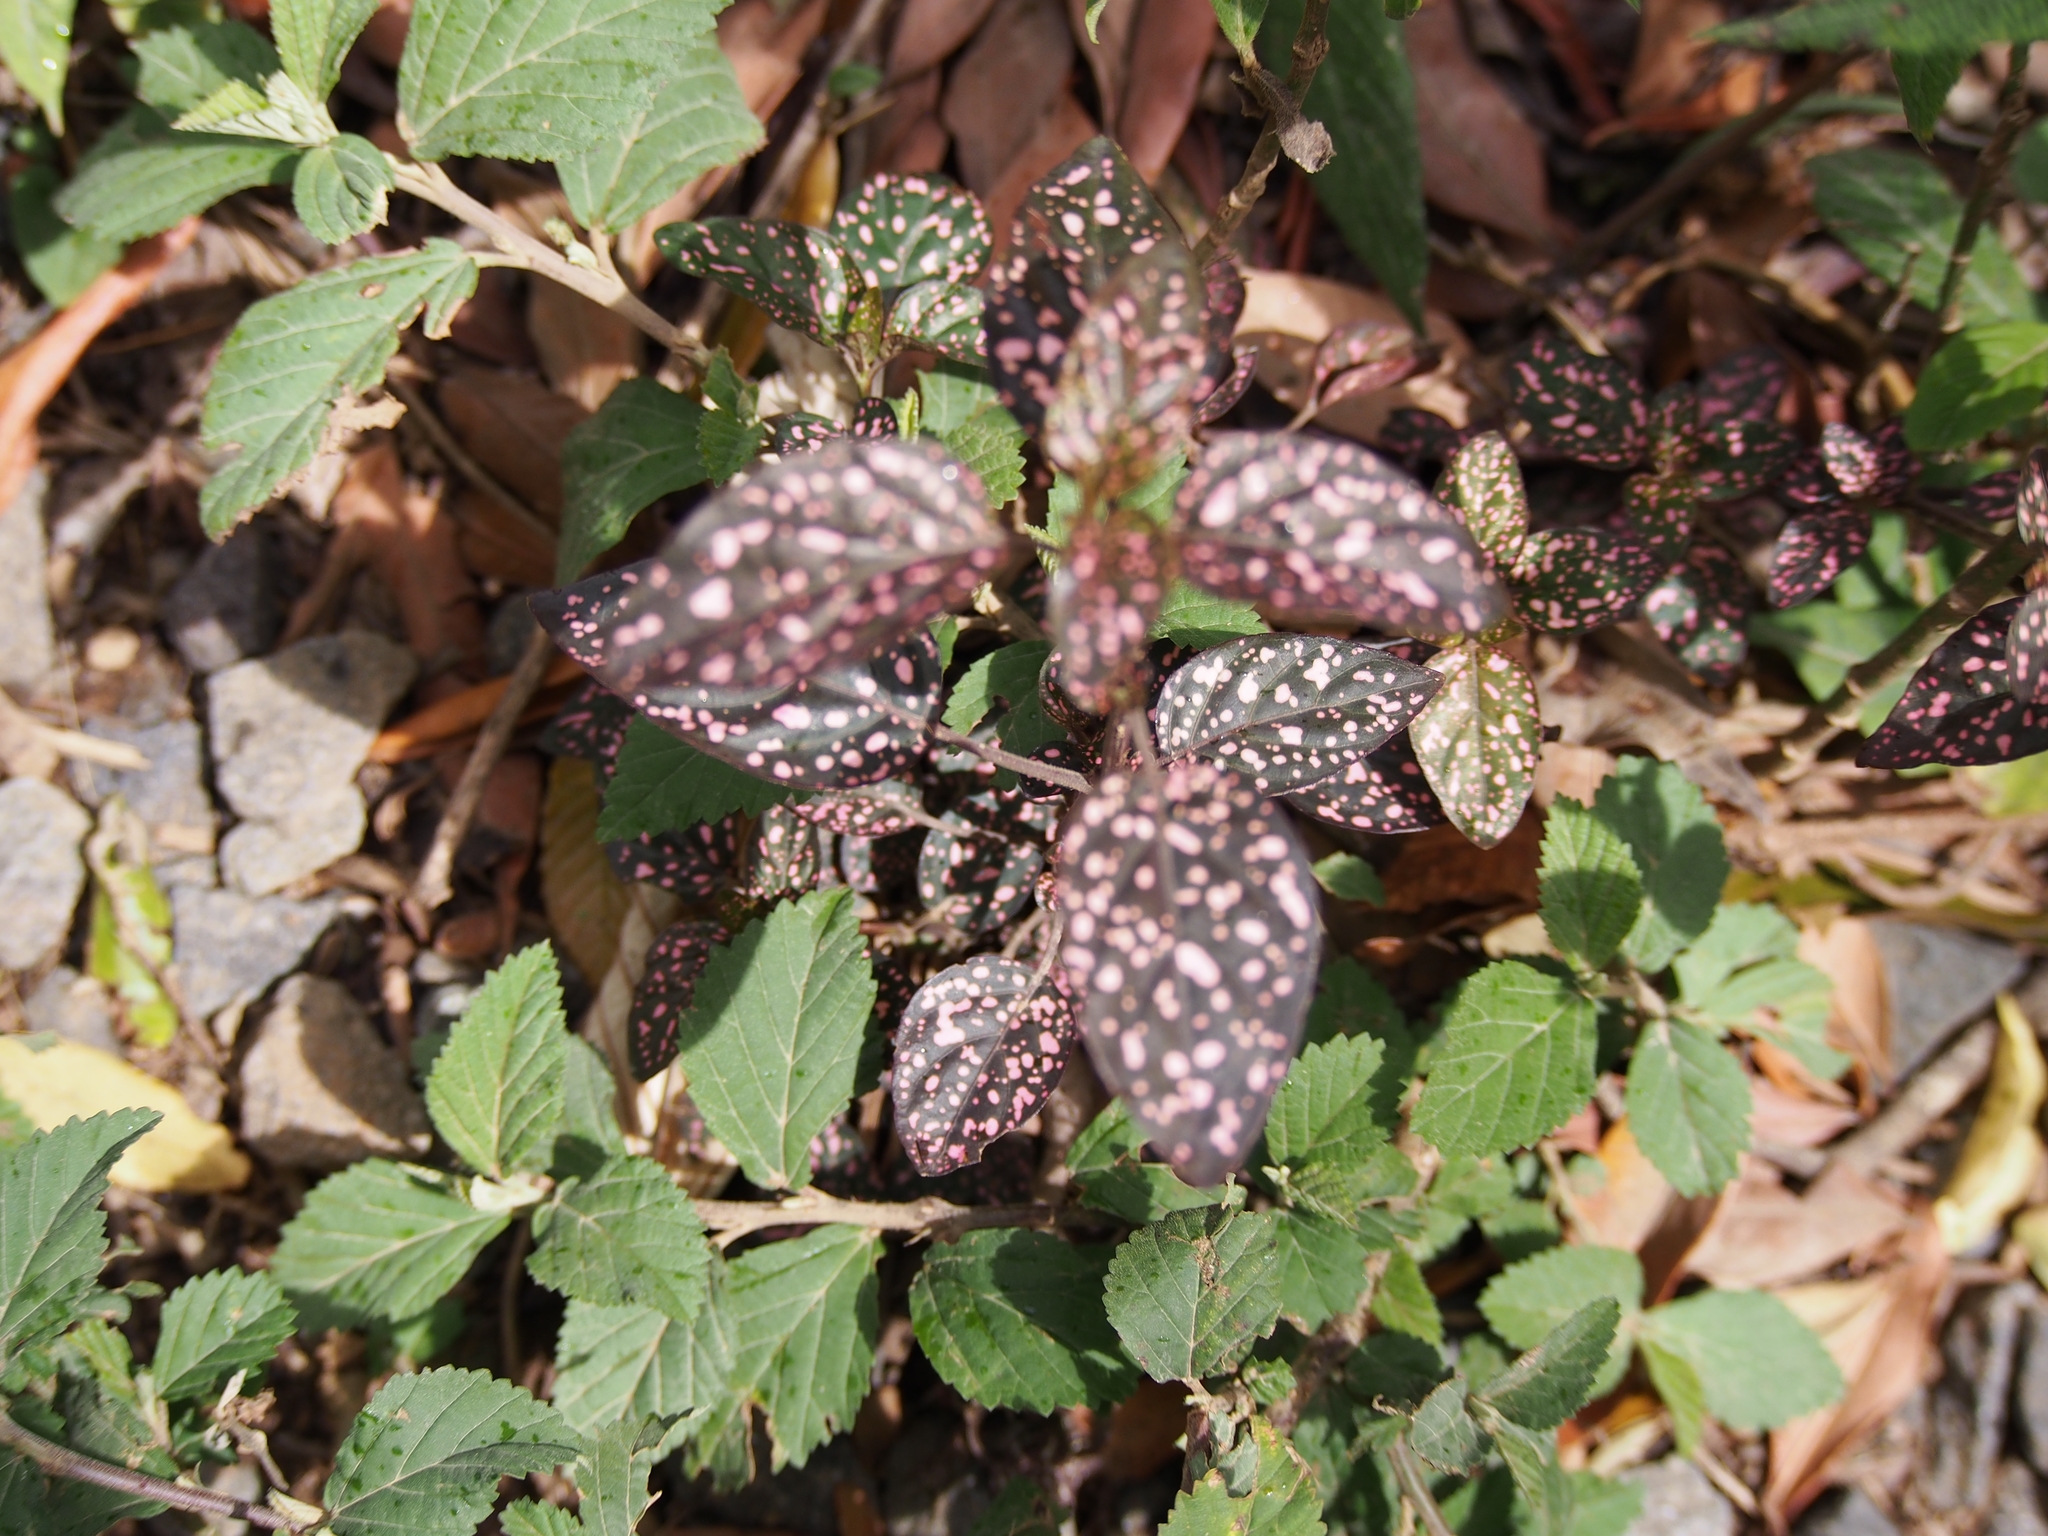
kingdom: Plantae
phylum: Tracheophyta
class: Magnoliopsida
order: Lamiales
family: Acanthaceae
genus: Hypoestes
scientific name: Hypoestes phyllostachya
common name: Polkadot-plant
